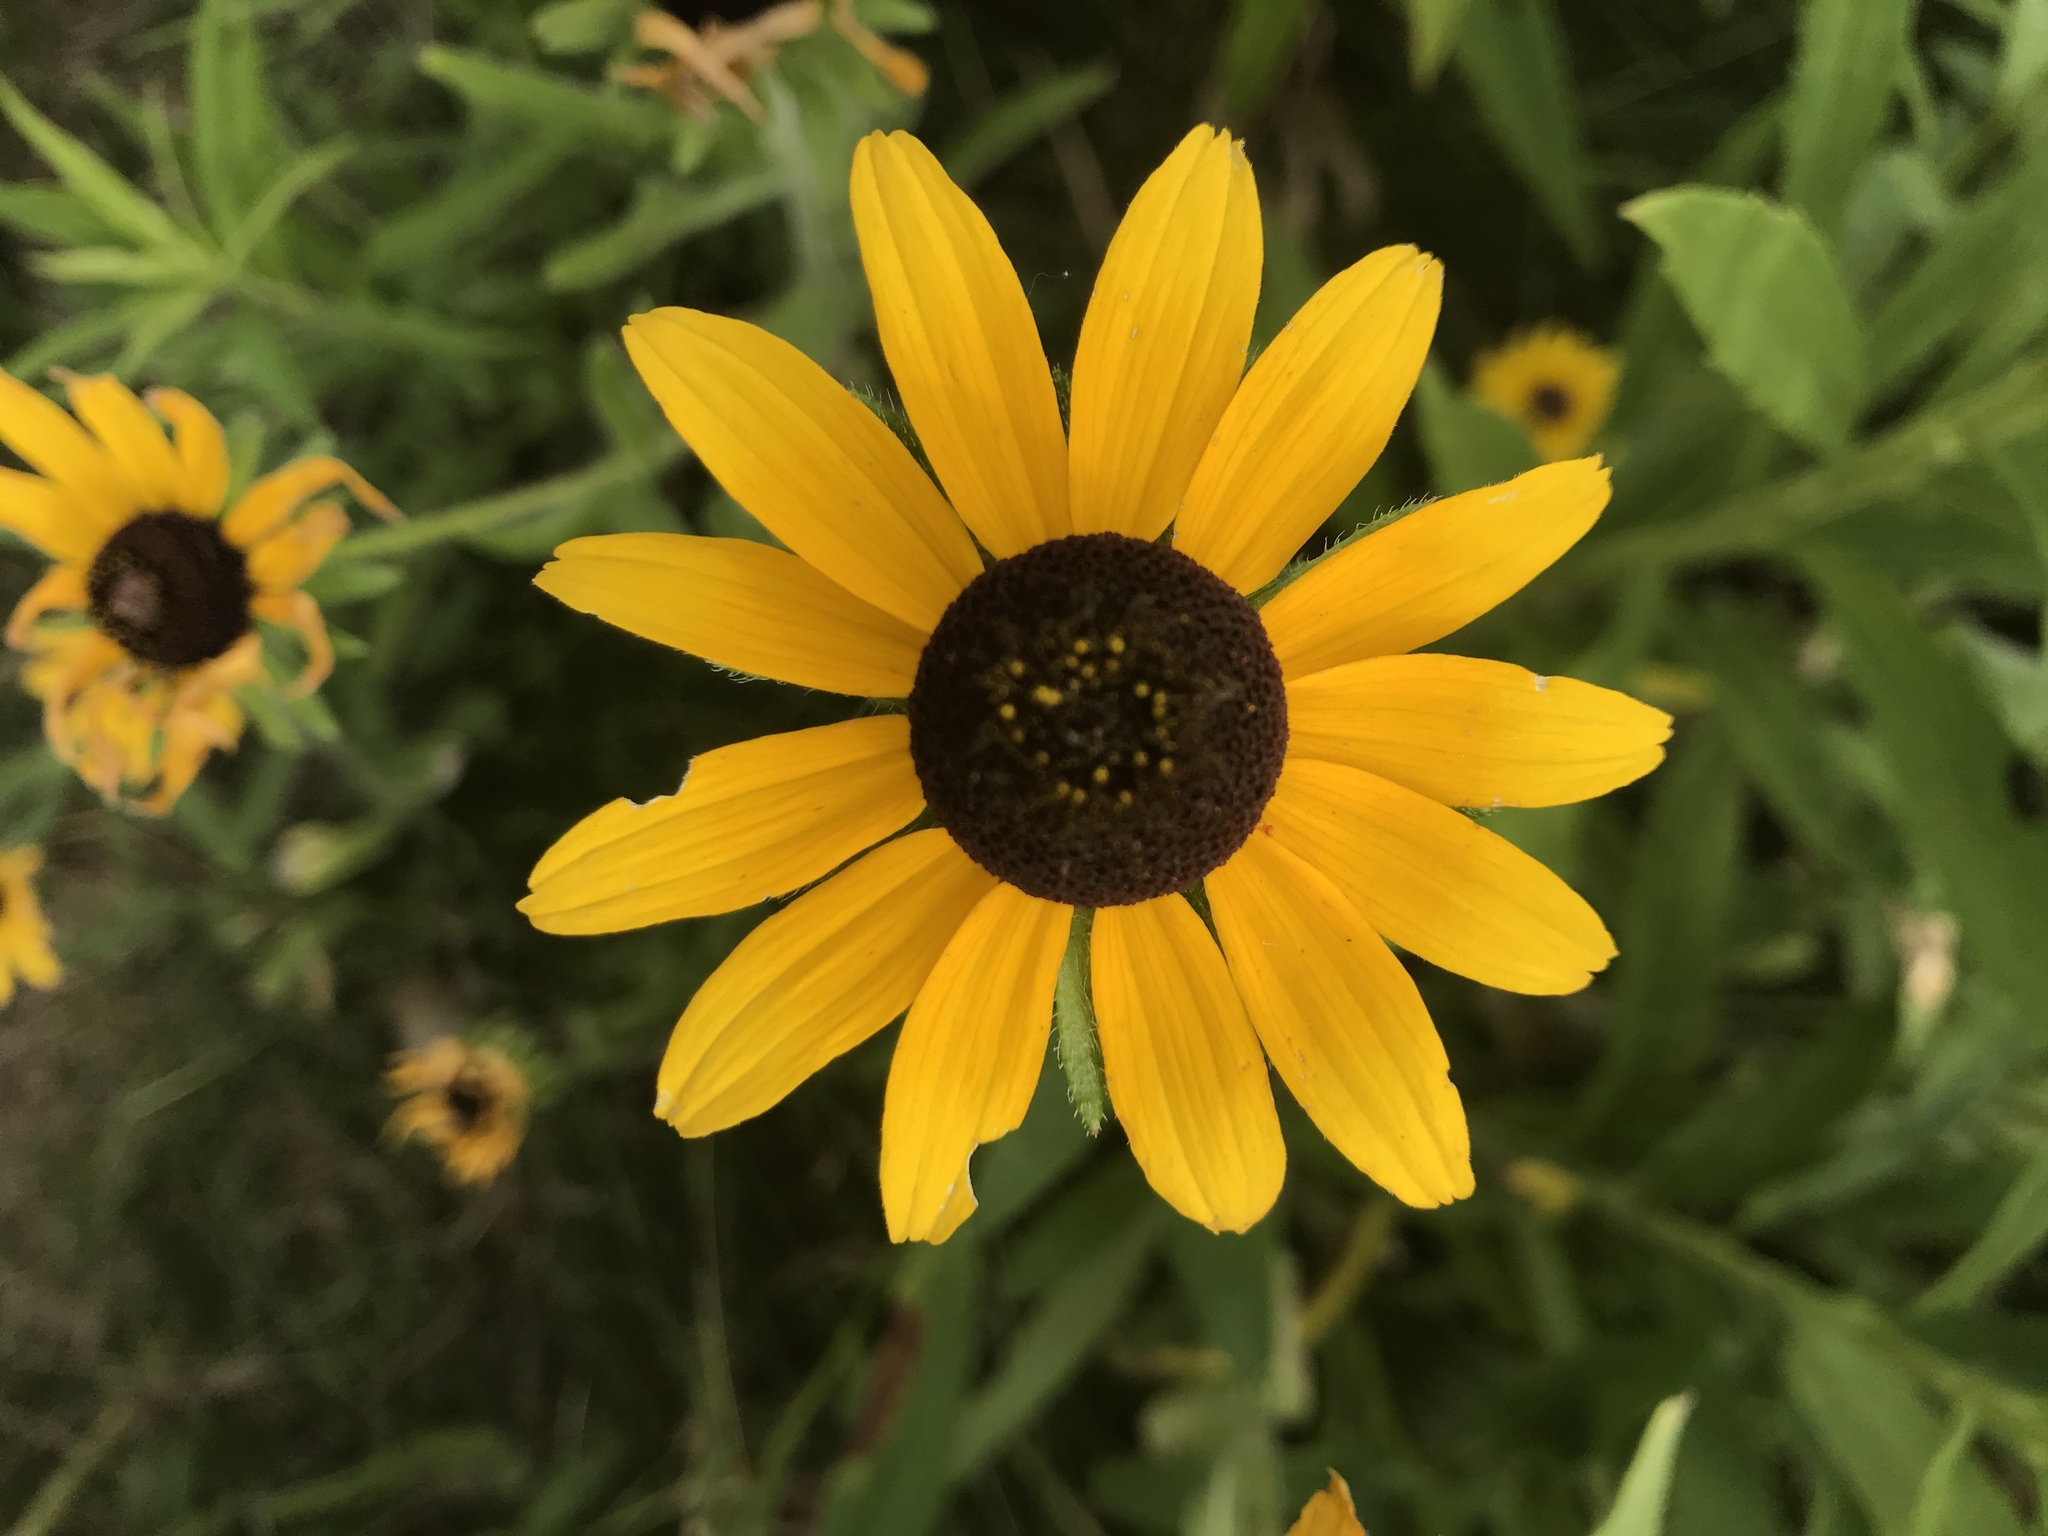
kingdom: Plantae
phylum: Tracheophyta
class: Magnoliopsida
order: Asterales
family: Asteraceae
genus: Rudbeckia
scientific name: Rudbeckia triloba
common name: Thin-leaved coneflower
